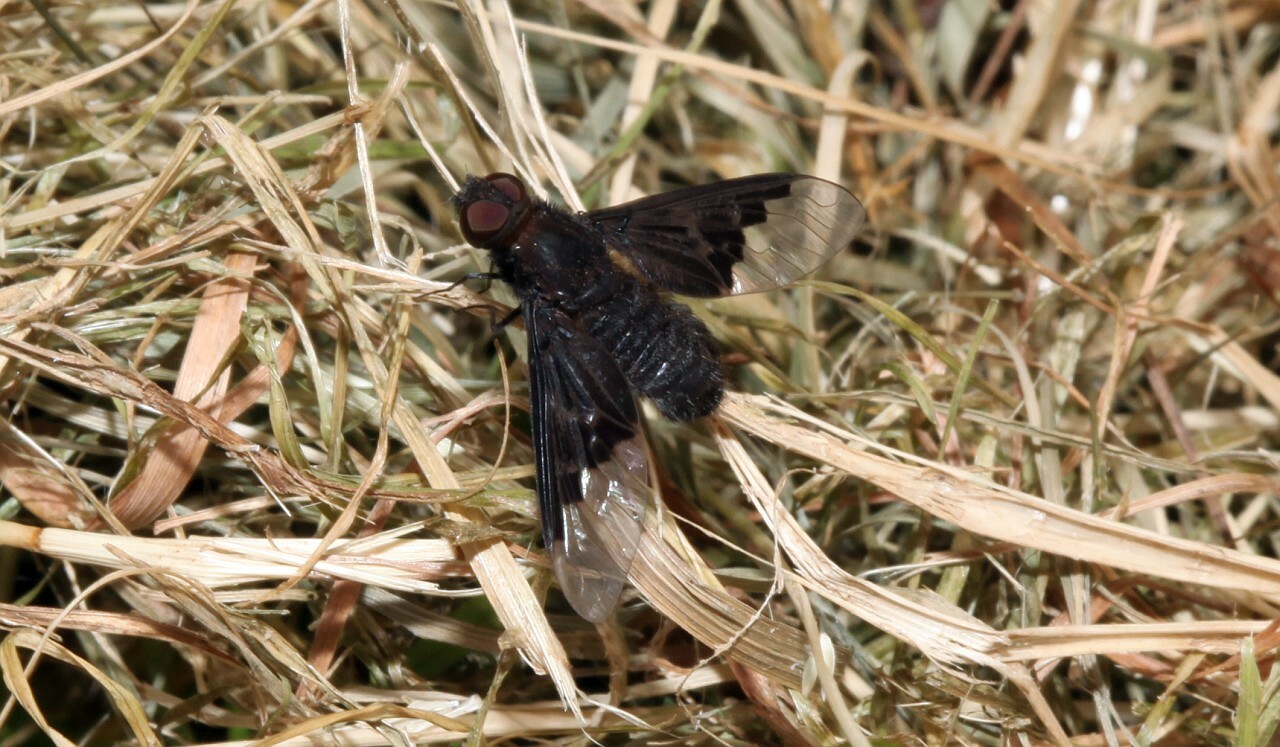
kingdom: Animalia
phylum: Arthropoda
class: Insecta
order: Diptera
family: Bombyliidae
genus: Hemipenthes
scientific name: Hemipenthes morio
